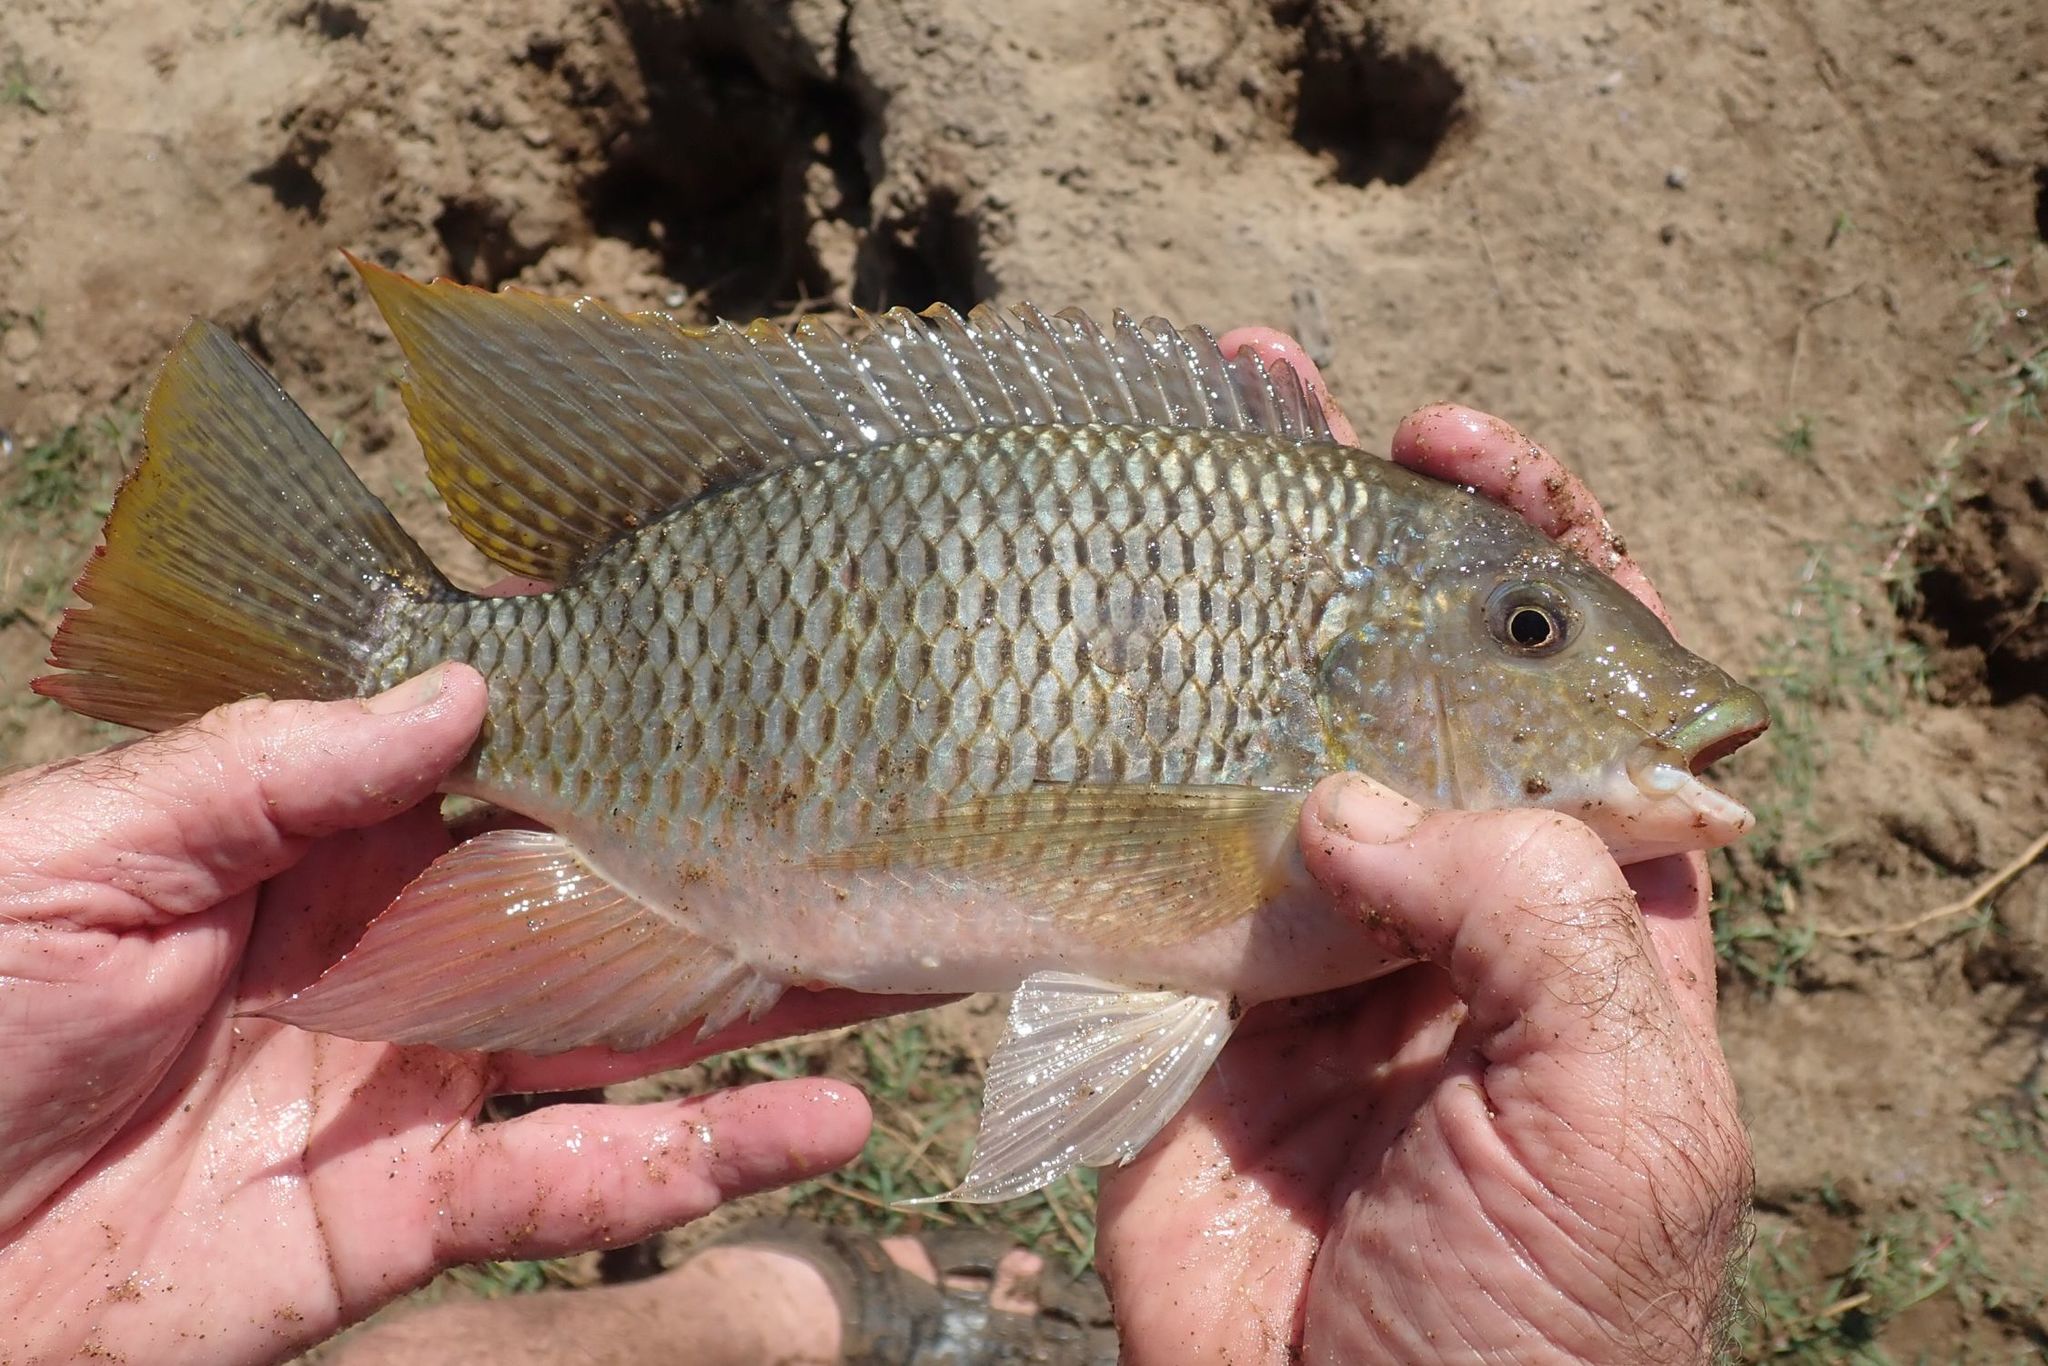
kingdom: Animalia
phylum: Chordata
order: Perciformes
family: Cichlidae
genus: Coptodon
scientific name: Coptodon rendalli
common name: Redbreast tilapia
